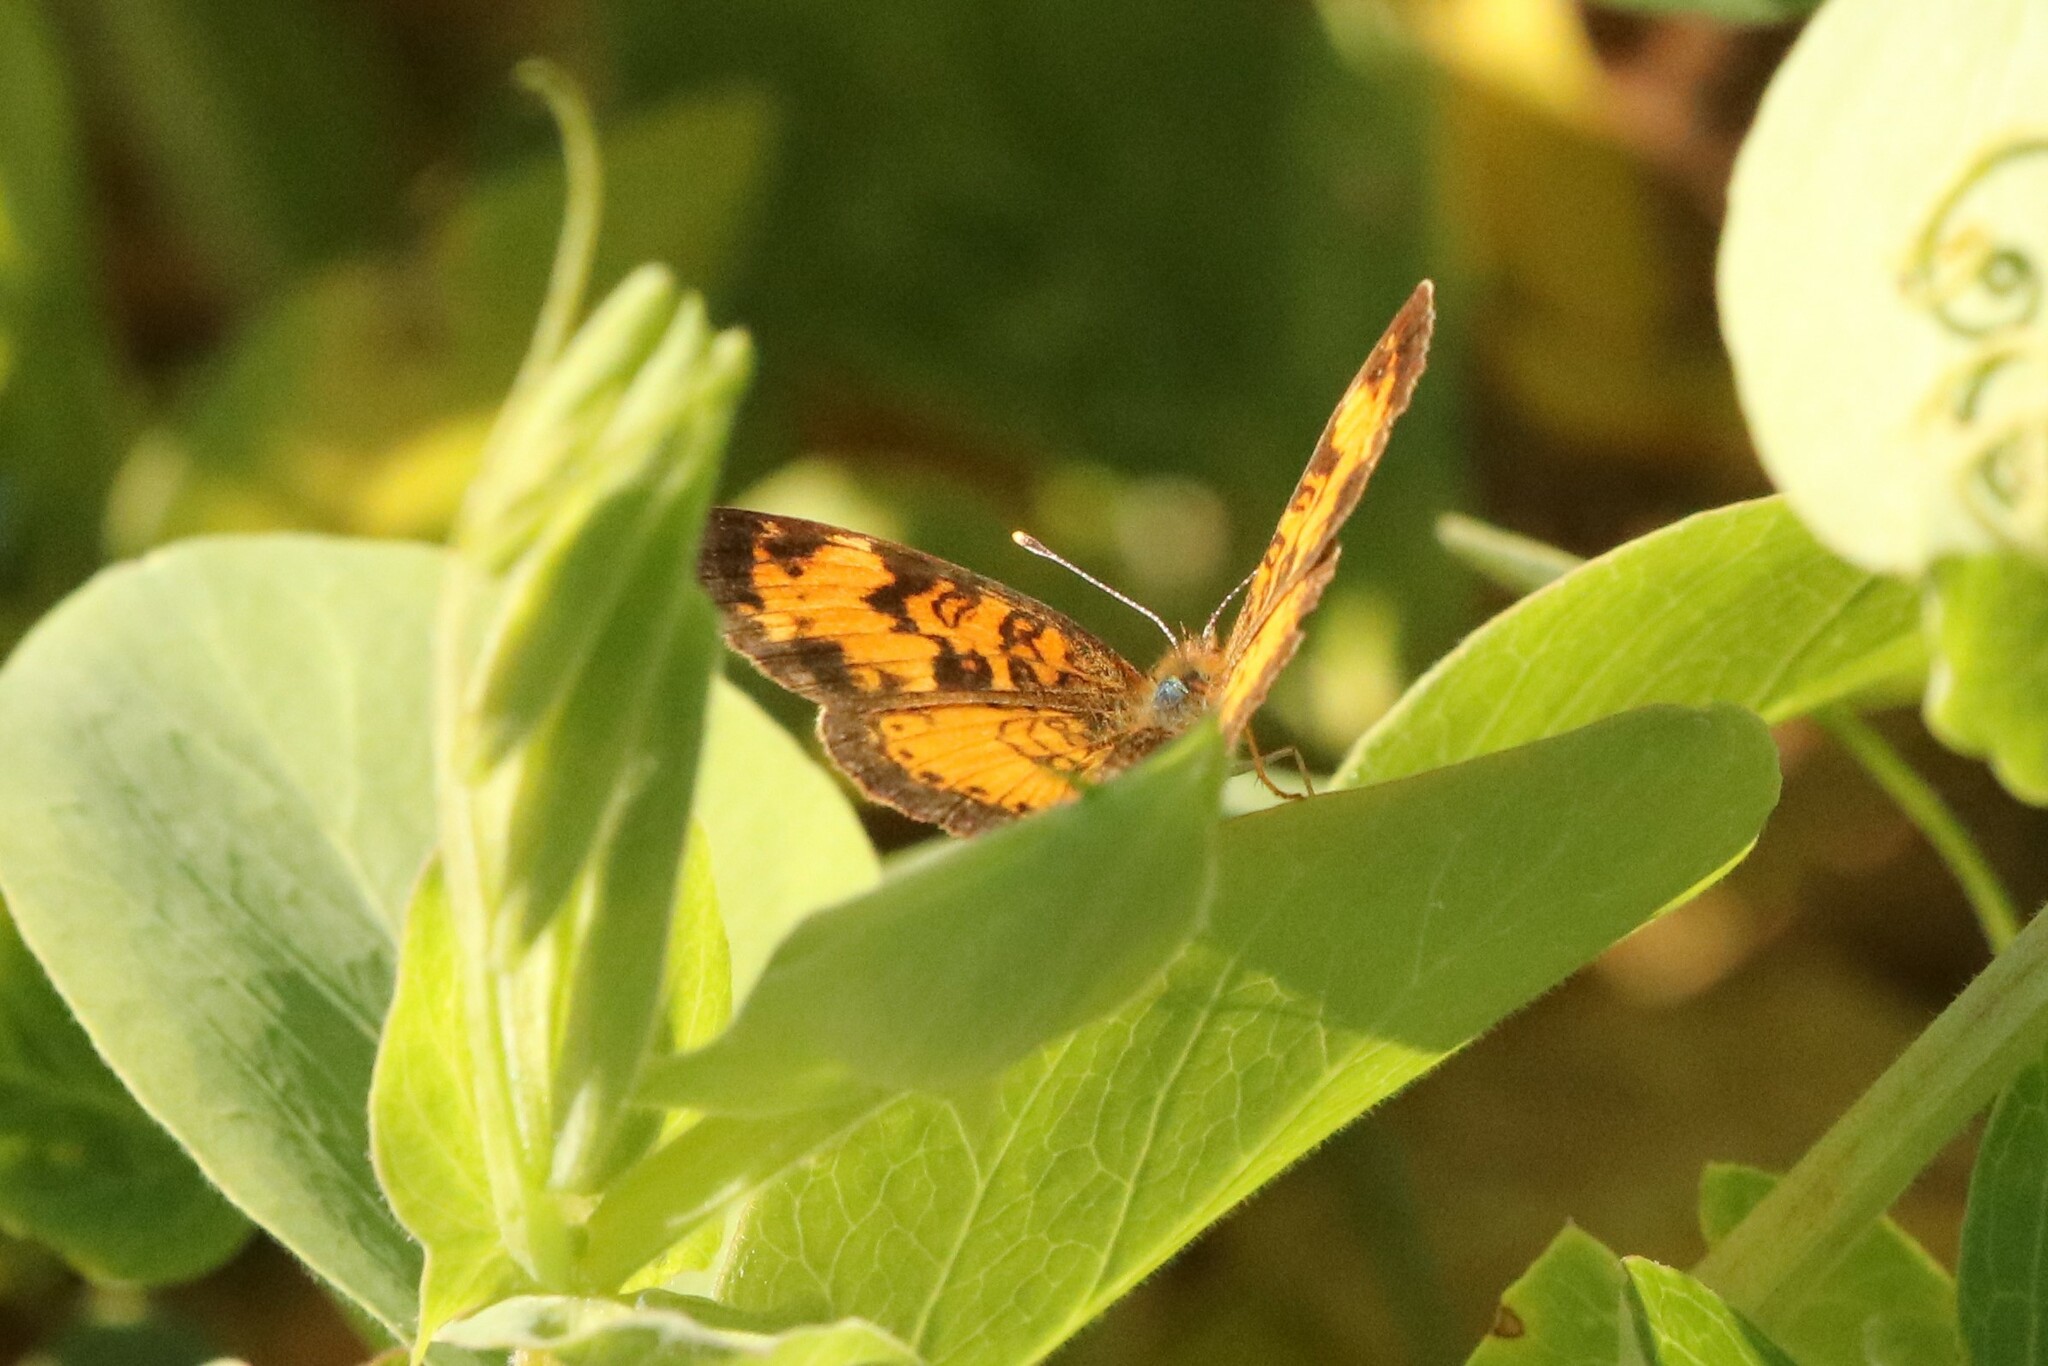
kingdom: Animalia
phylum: Arthropoda
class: Insecta
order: Lepidoptera
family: Nymphalidae
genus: Phyciodes
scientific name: Phyciodes tharos
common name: Pearl crescent
